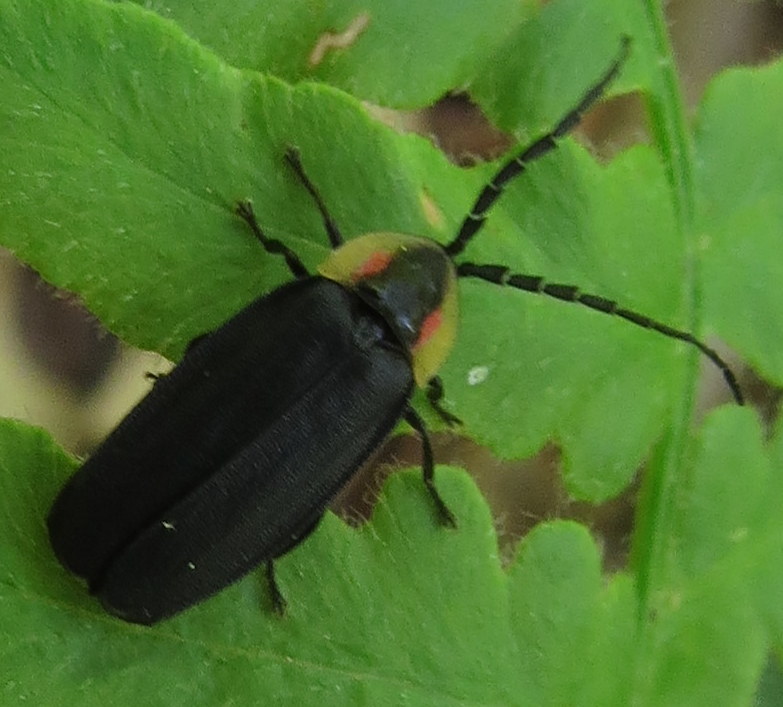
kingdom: Animalia
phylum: Arthropoda
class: Insecta
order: Coleoptera
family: Lampyridae
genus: Lucidota
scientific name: Lucidota atra
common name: Black firefly
